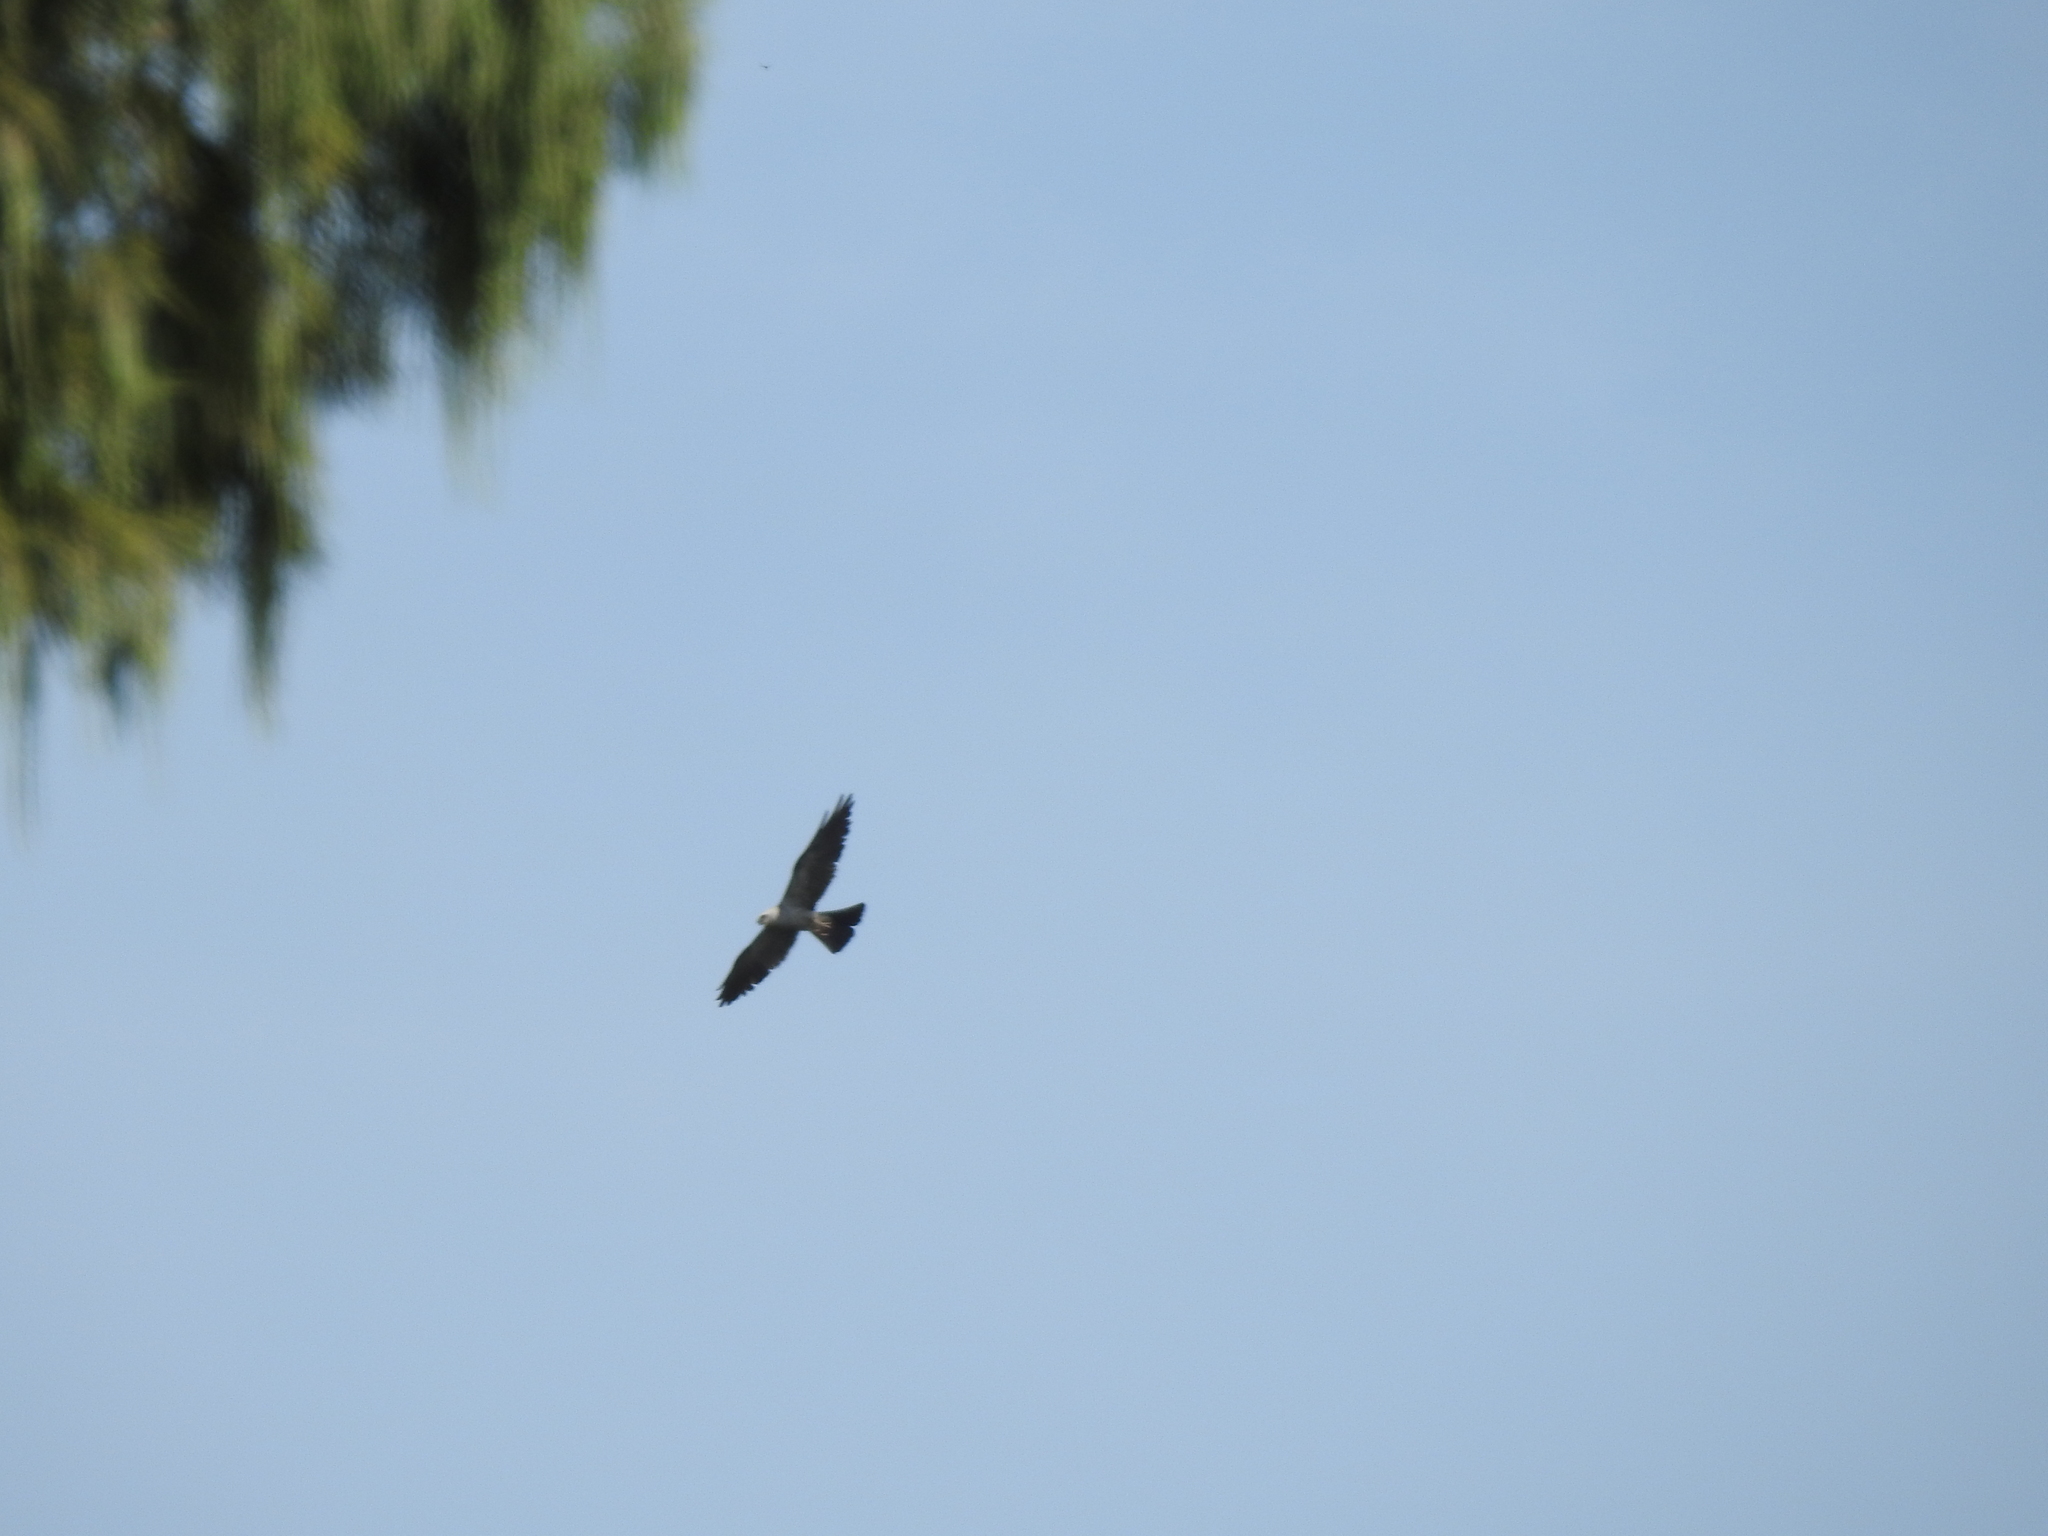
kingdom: Animalia
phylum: Chordata
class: Aves
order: Accipitriformes
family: Accipitridae
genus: Ictinia
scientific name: Ictinia mississippiensis
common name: Mississippi kite
